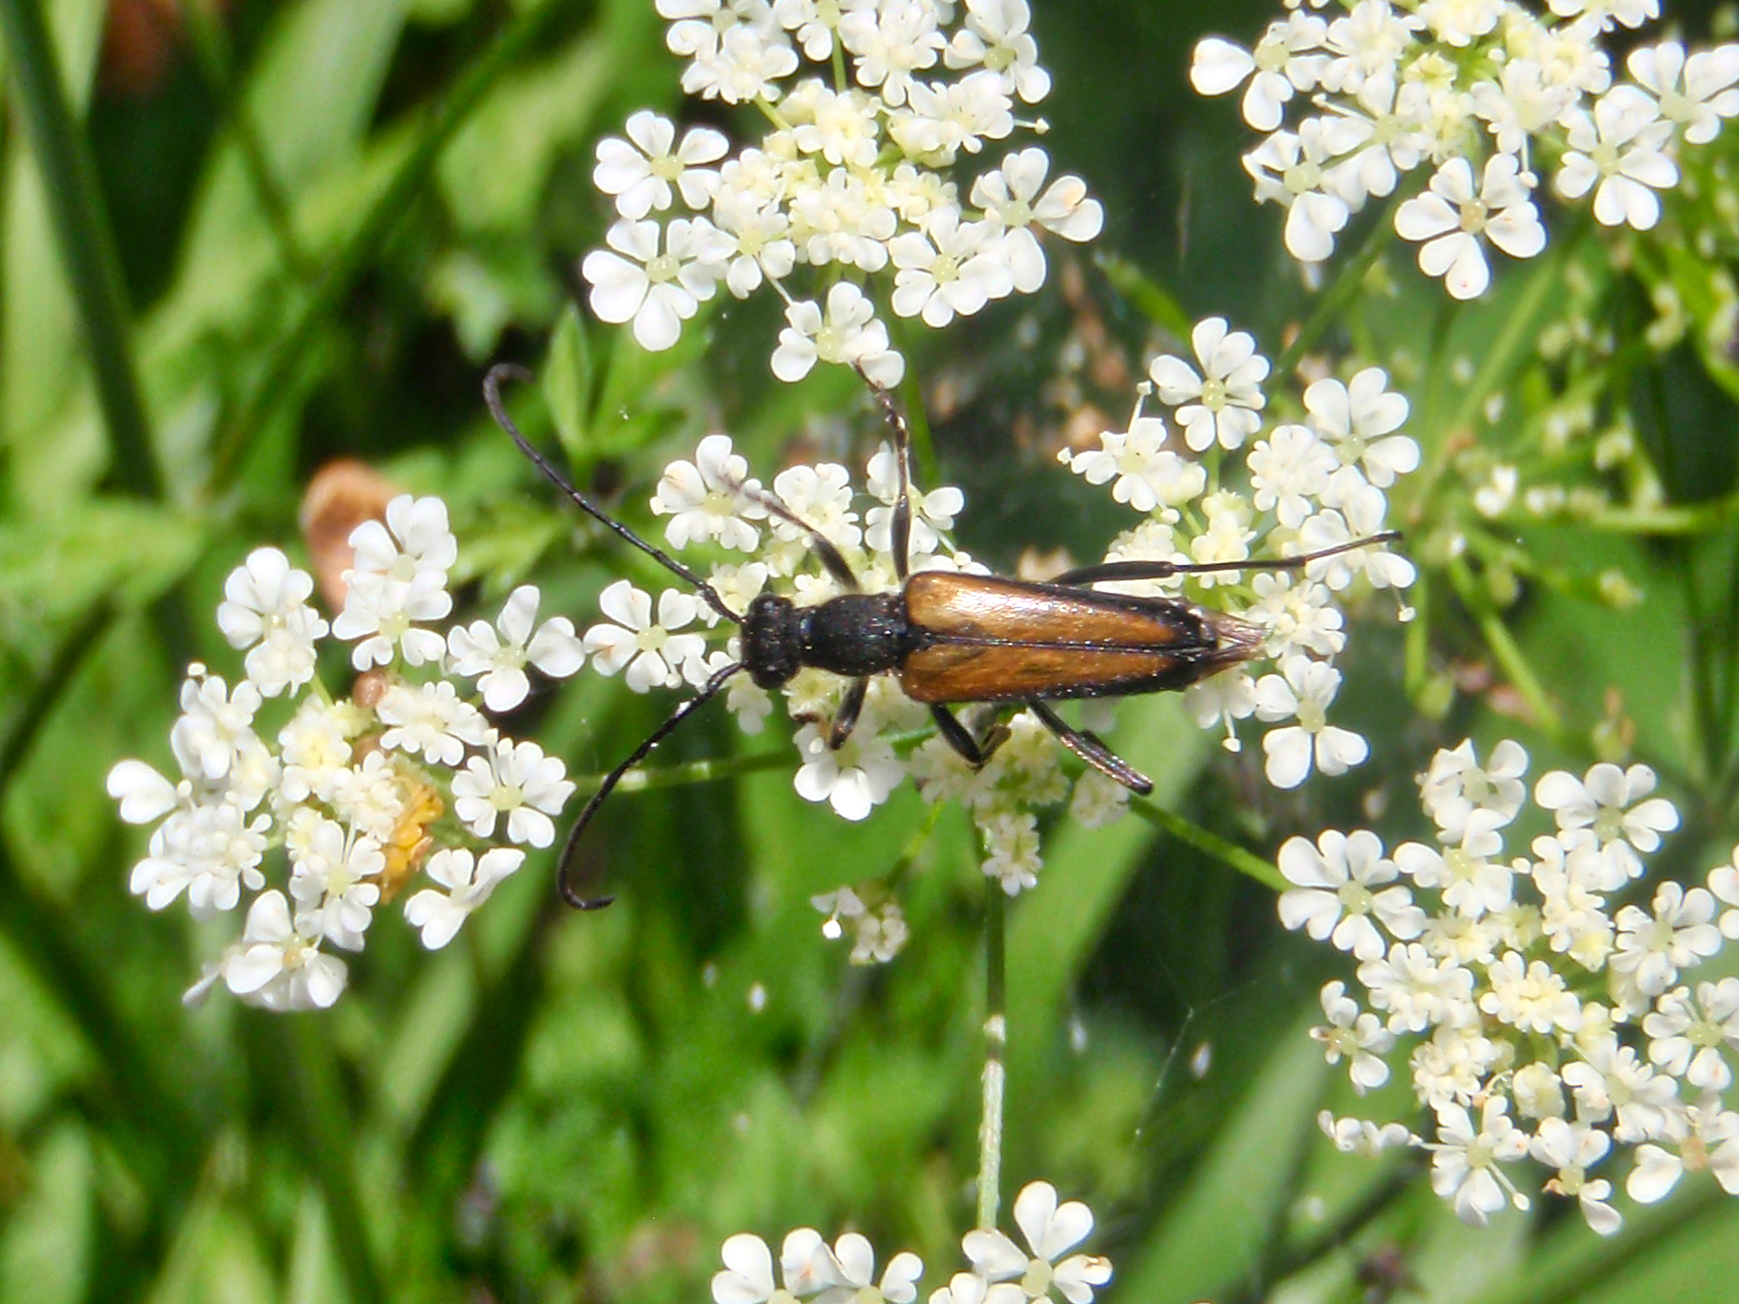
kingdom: Animalia
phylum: Arthropoda
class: Insecta
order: Coleoptera
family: Cerambycidae
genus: Anastrangalia
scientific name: Anastrangalia dubia
